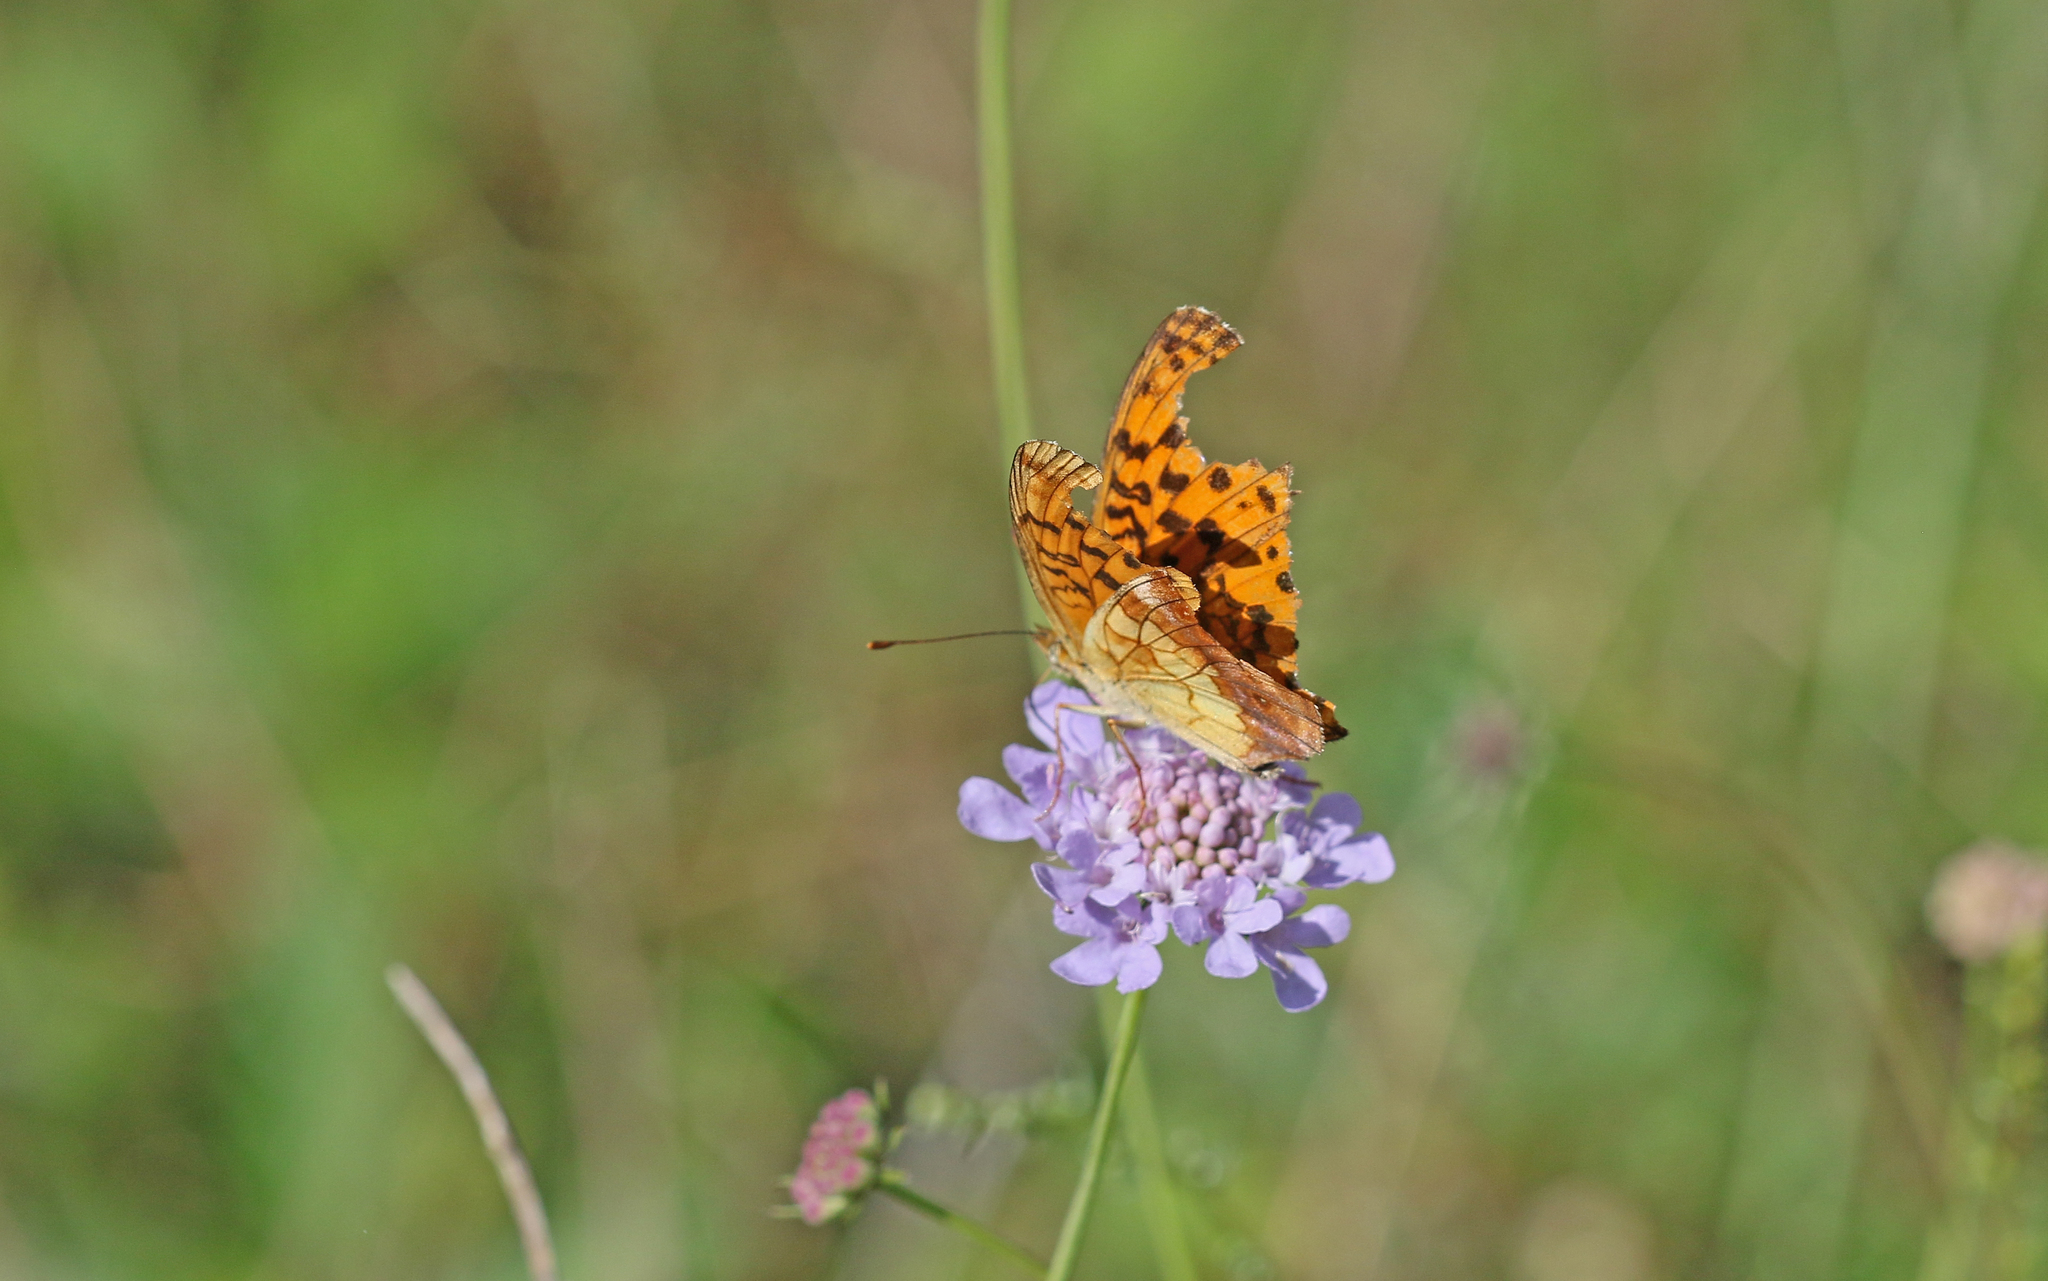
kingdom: Animalia
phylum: Arthropoda
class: Insecta
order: Lepidoptera
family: Nymphalidae
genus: Brenthis
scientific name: Brenthis daphne
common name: Marbled fritillary
